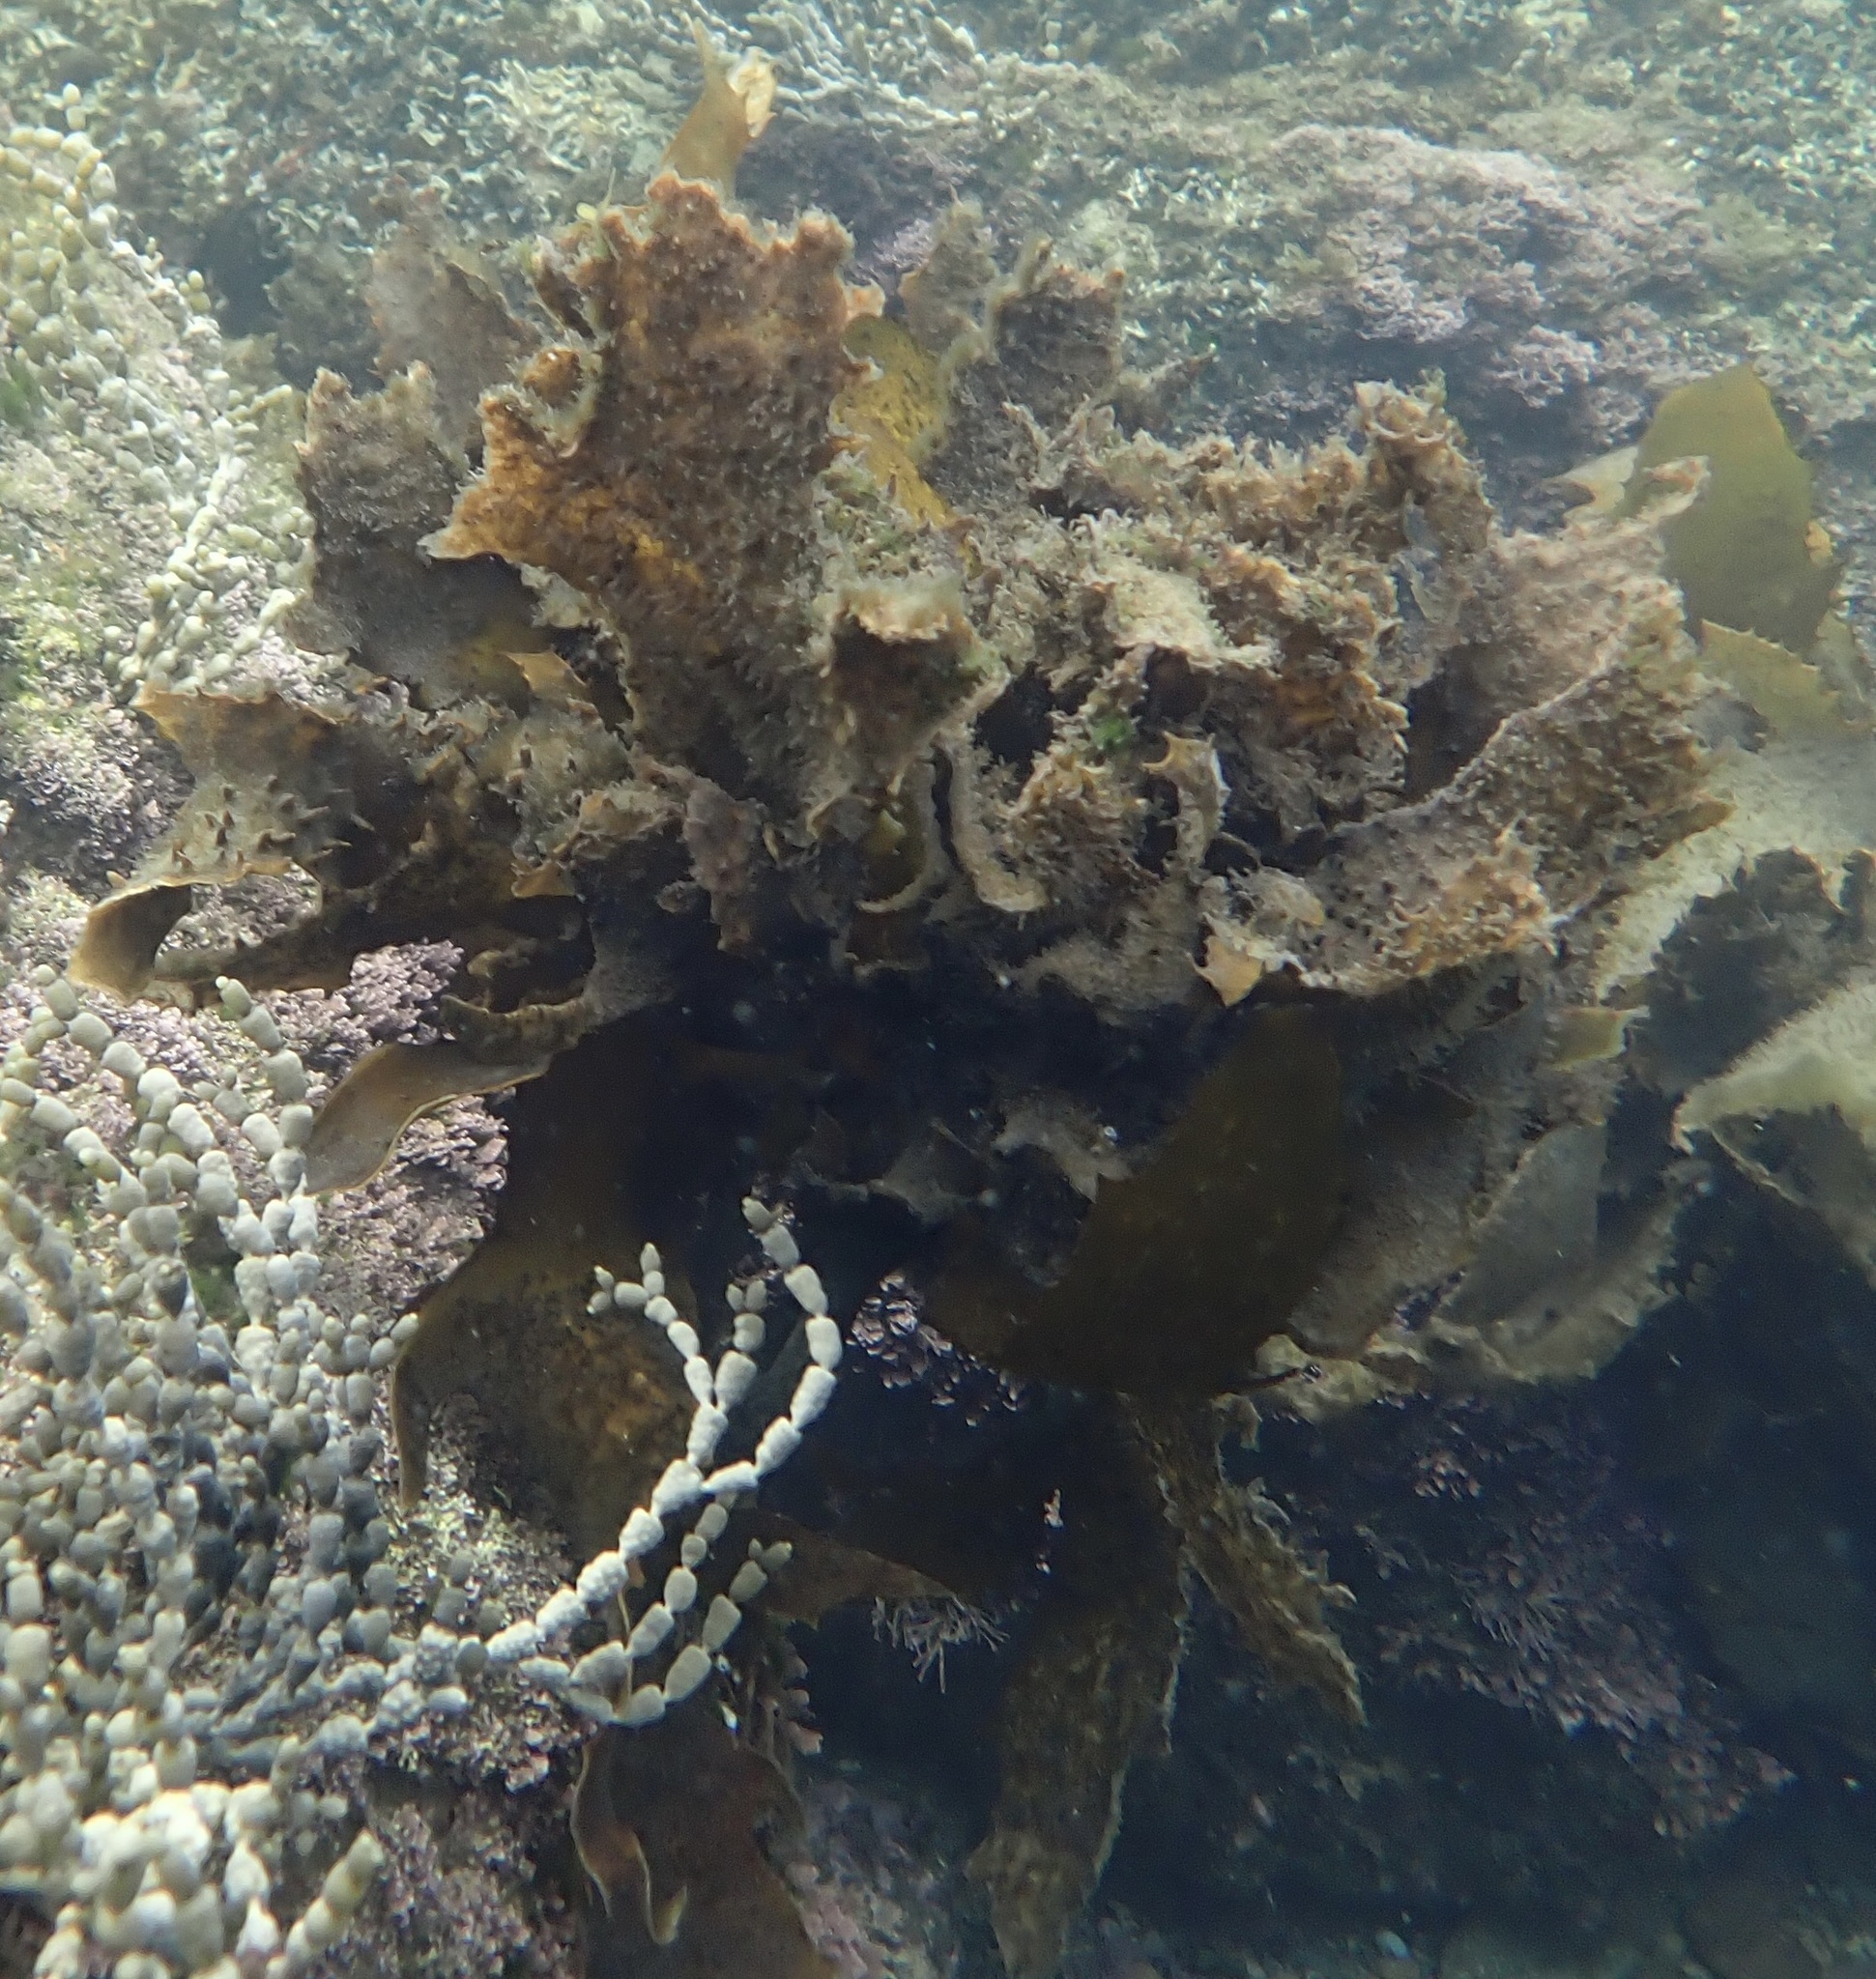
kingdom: Chromista
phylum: Ochrophyta
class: Phaeophyceae
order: Laminariales
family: Lessoniaceae
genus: Ecklonia
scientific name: Ecklonia radiata
